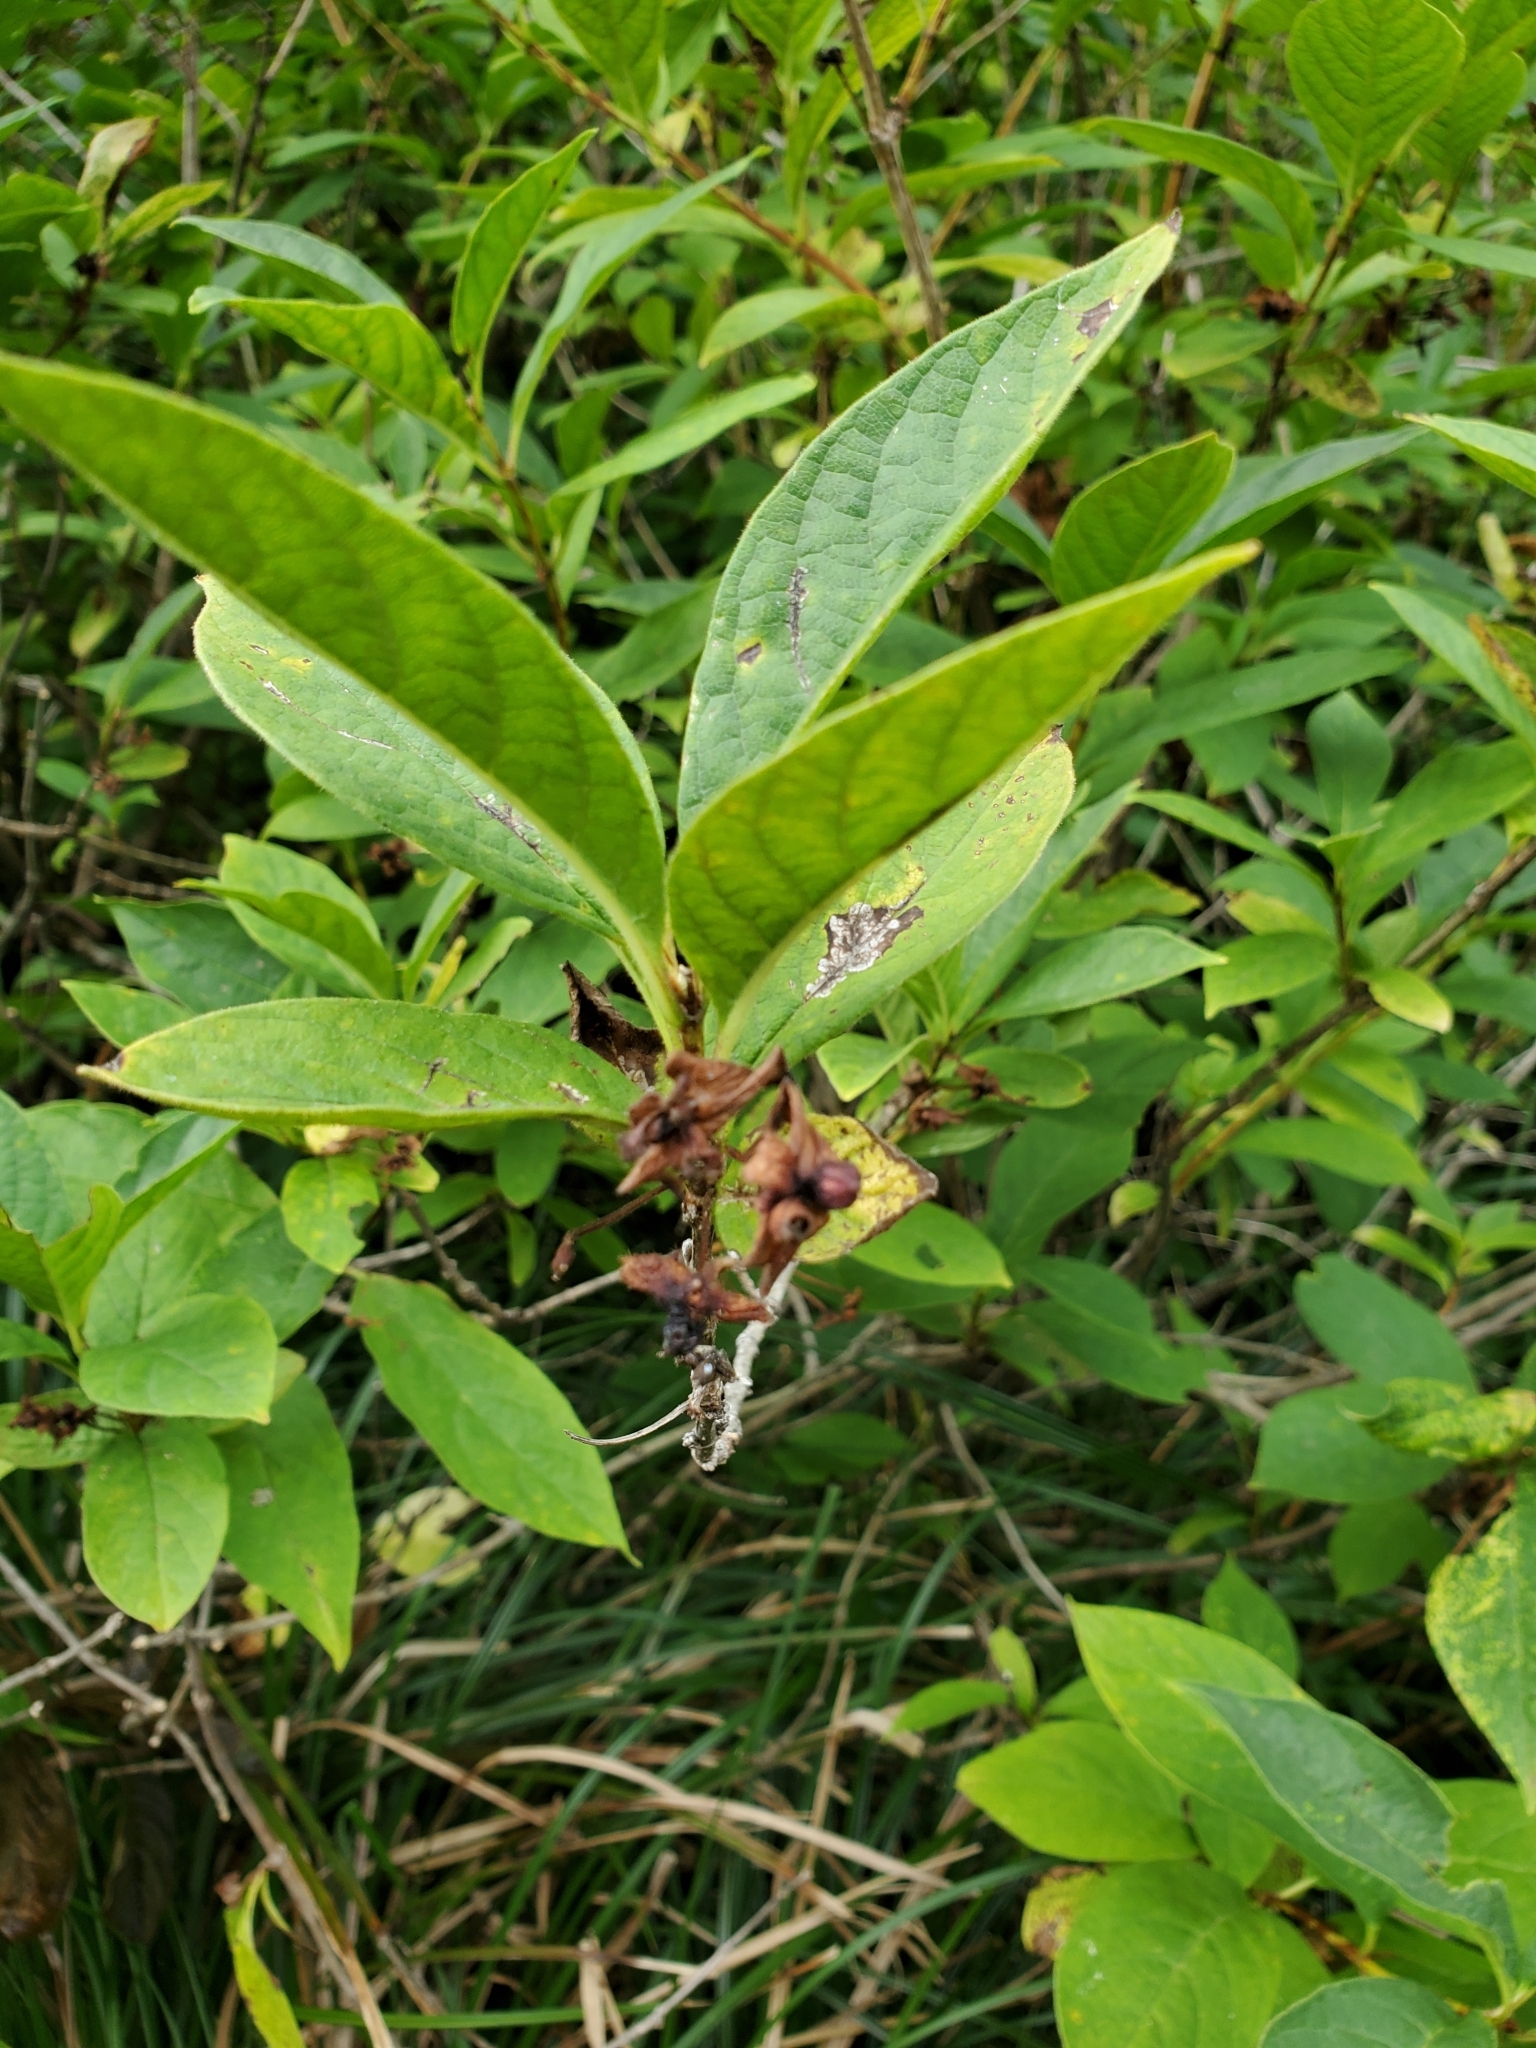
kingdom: Plantae
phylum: Tracheophyta
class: Magnoliopsida
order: Dipsacales
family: Caprifoliaceae
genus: Lonicera
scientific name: Lonicera involucrata
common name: Californian honeysuckle
